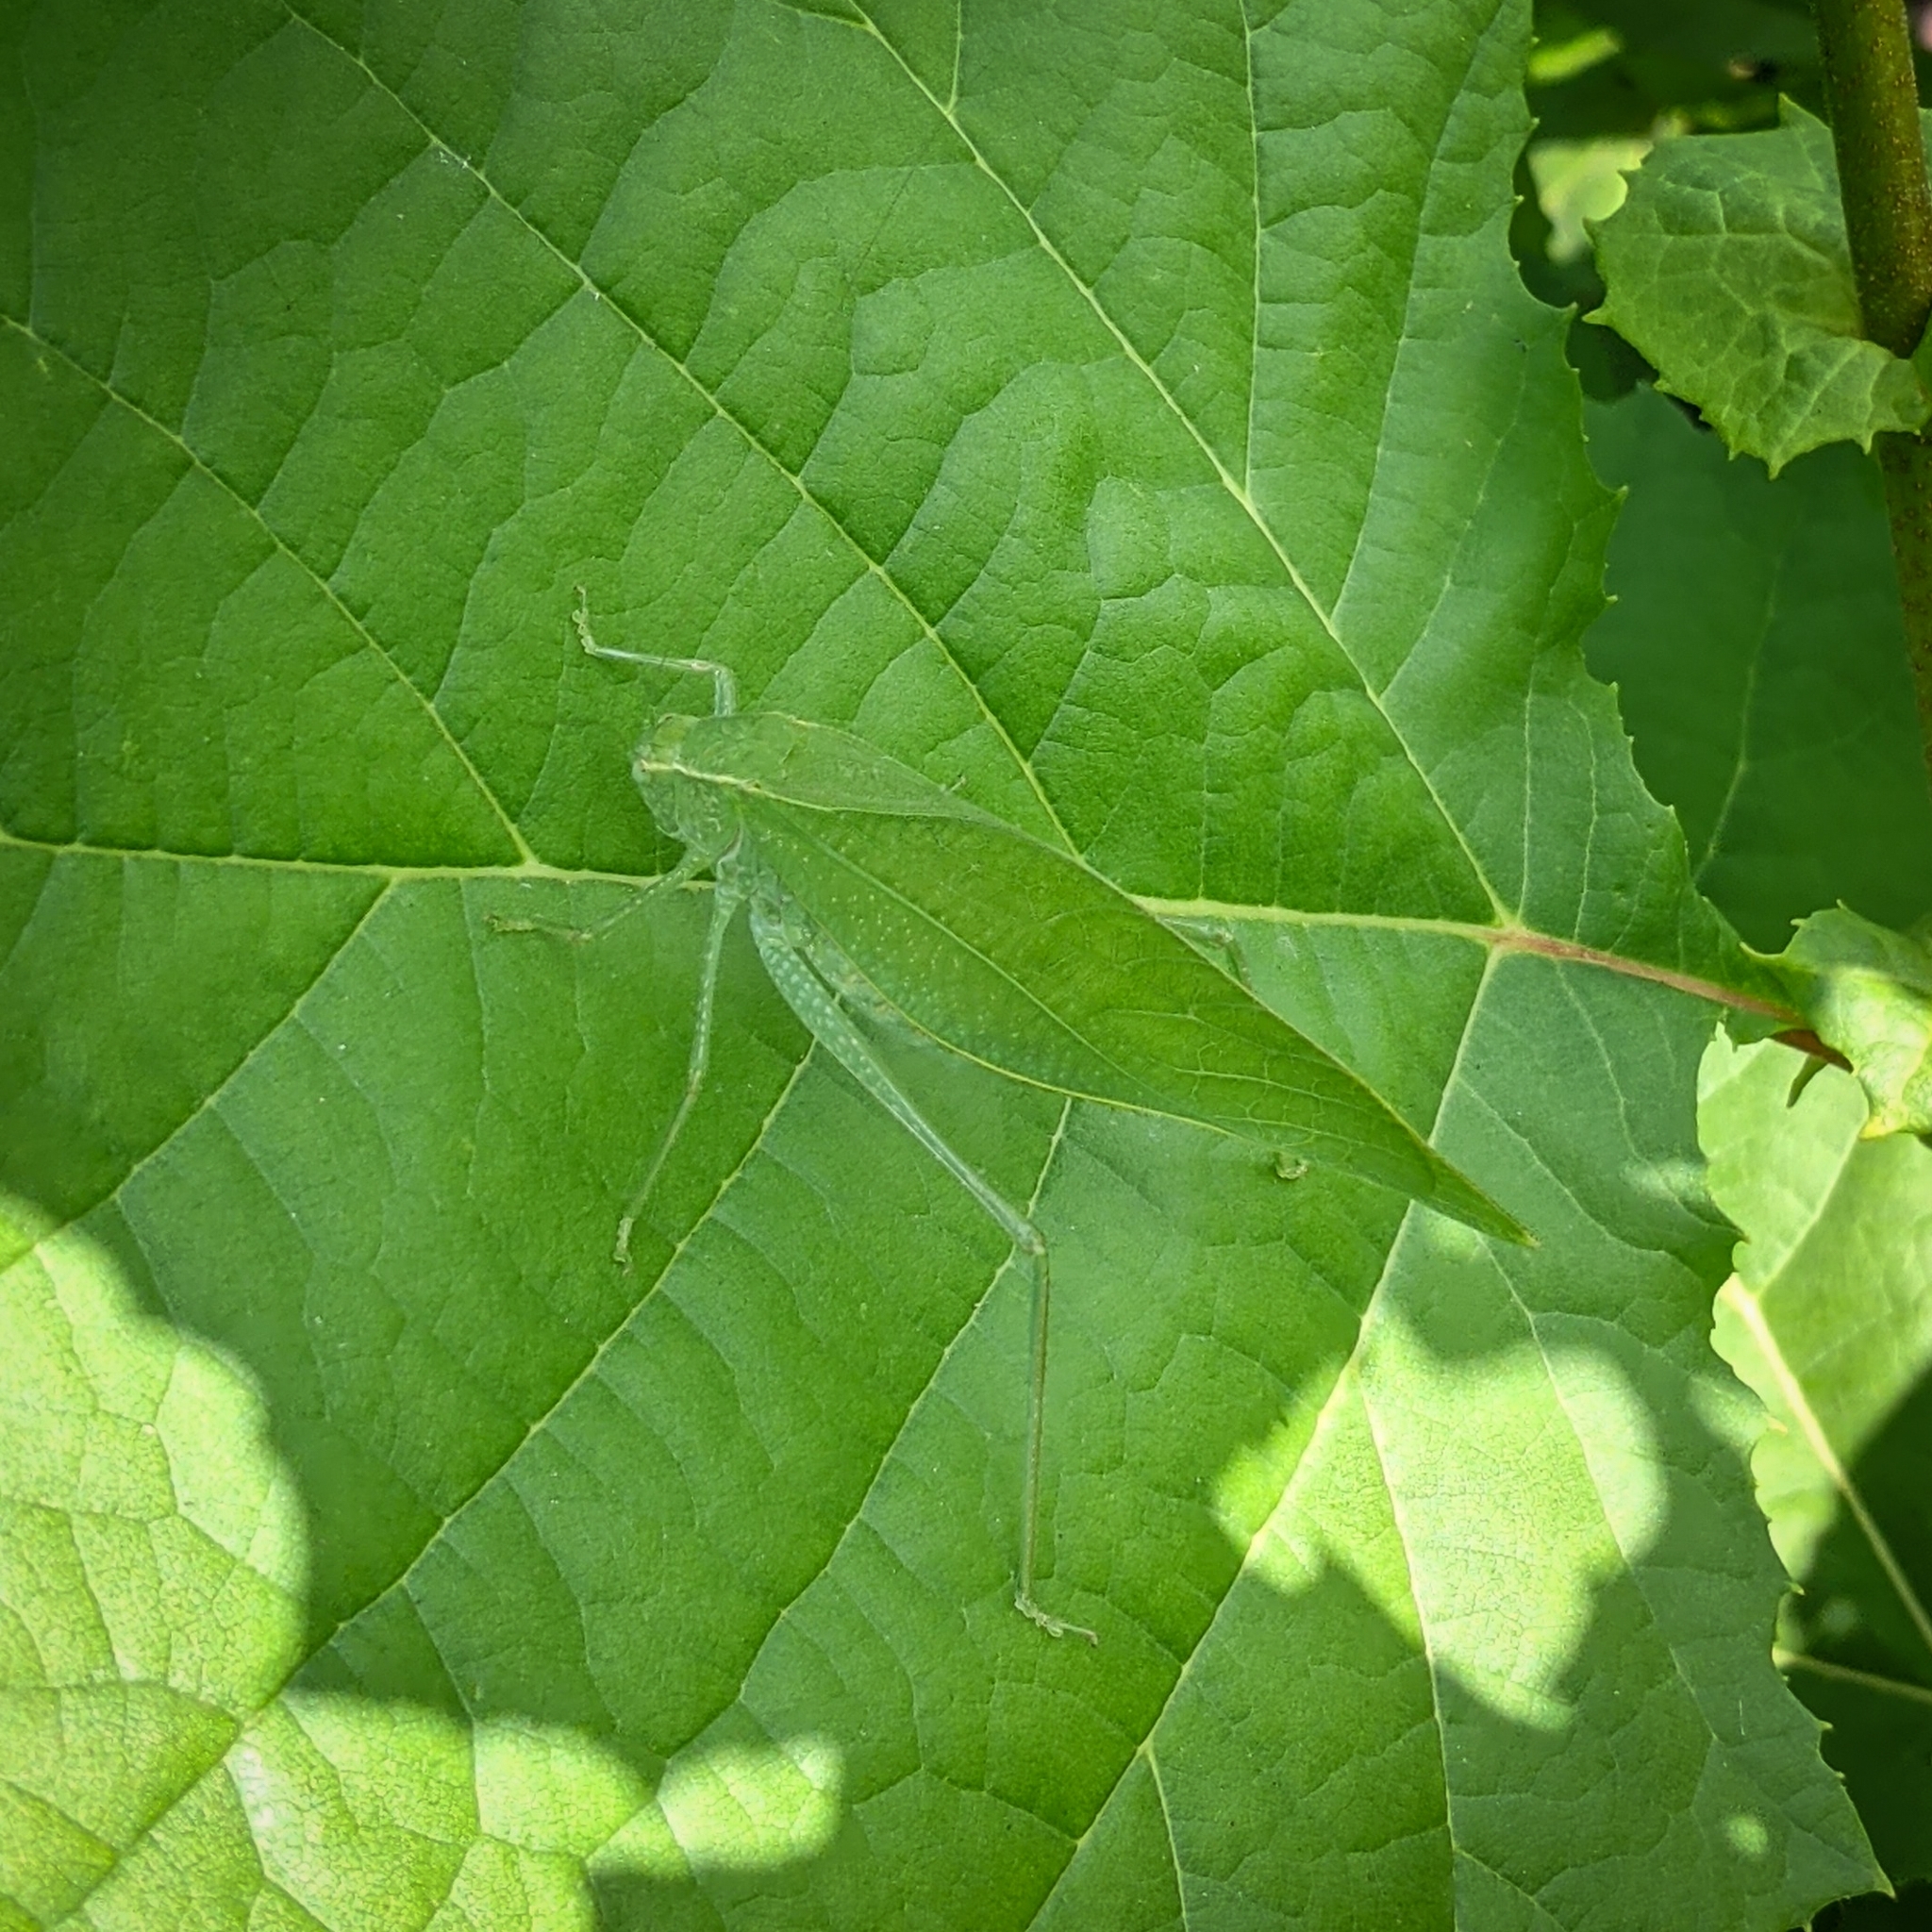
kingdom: Animalia
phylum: Arthropoda
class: Insecta
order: Orthoptera
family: Tettigoniidae
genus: Microcentrum
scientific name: Microcentrum rhombifolium
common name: Broad-winged katydid
